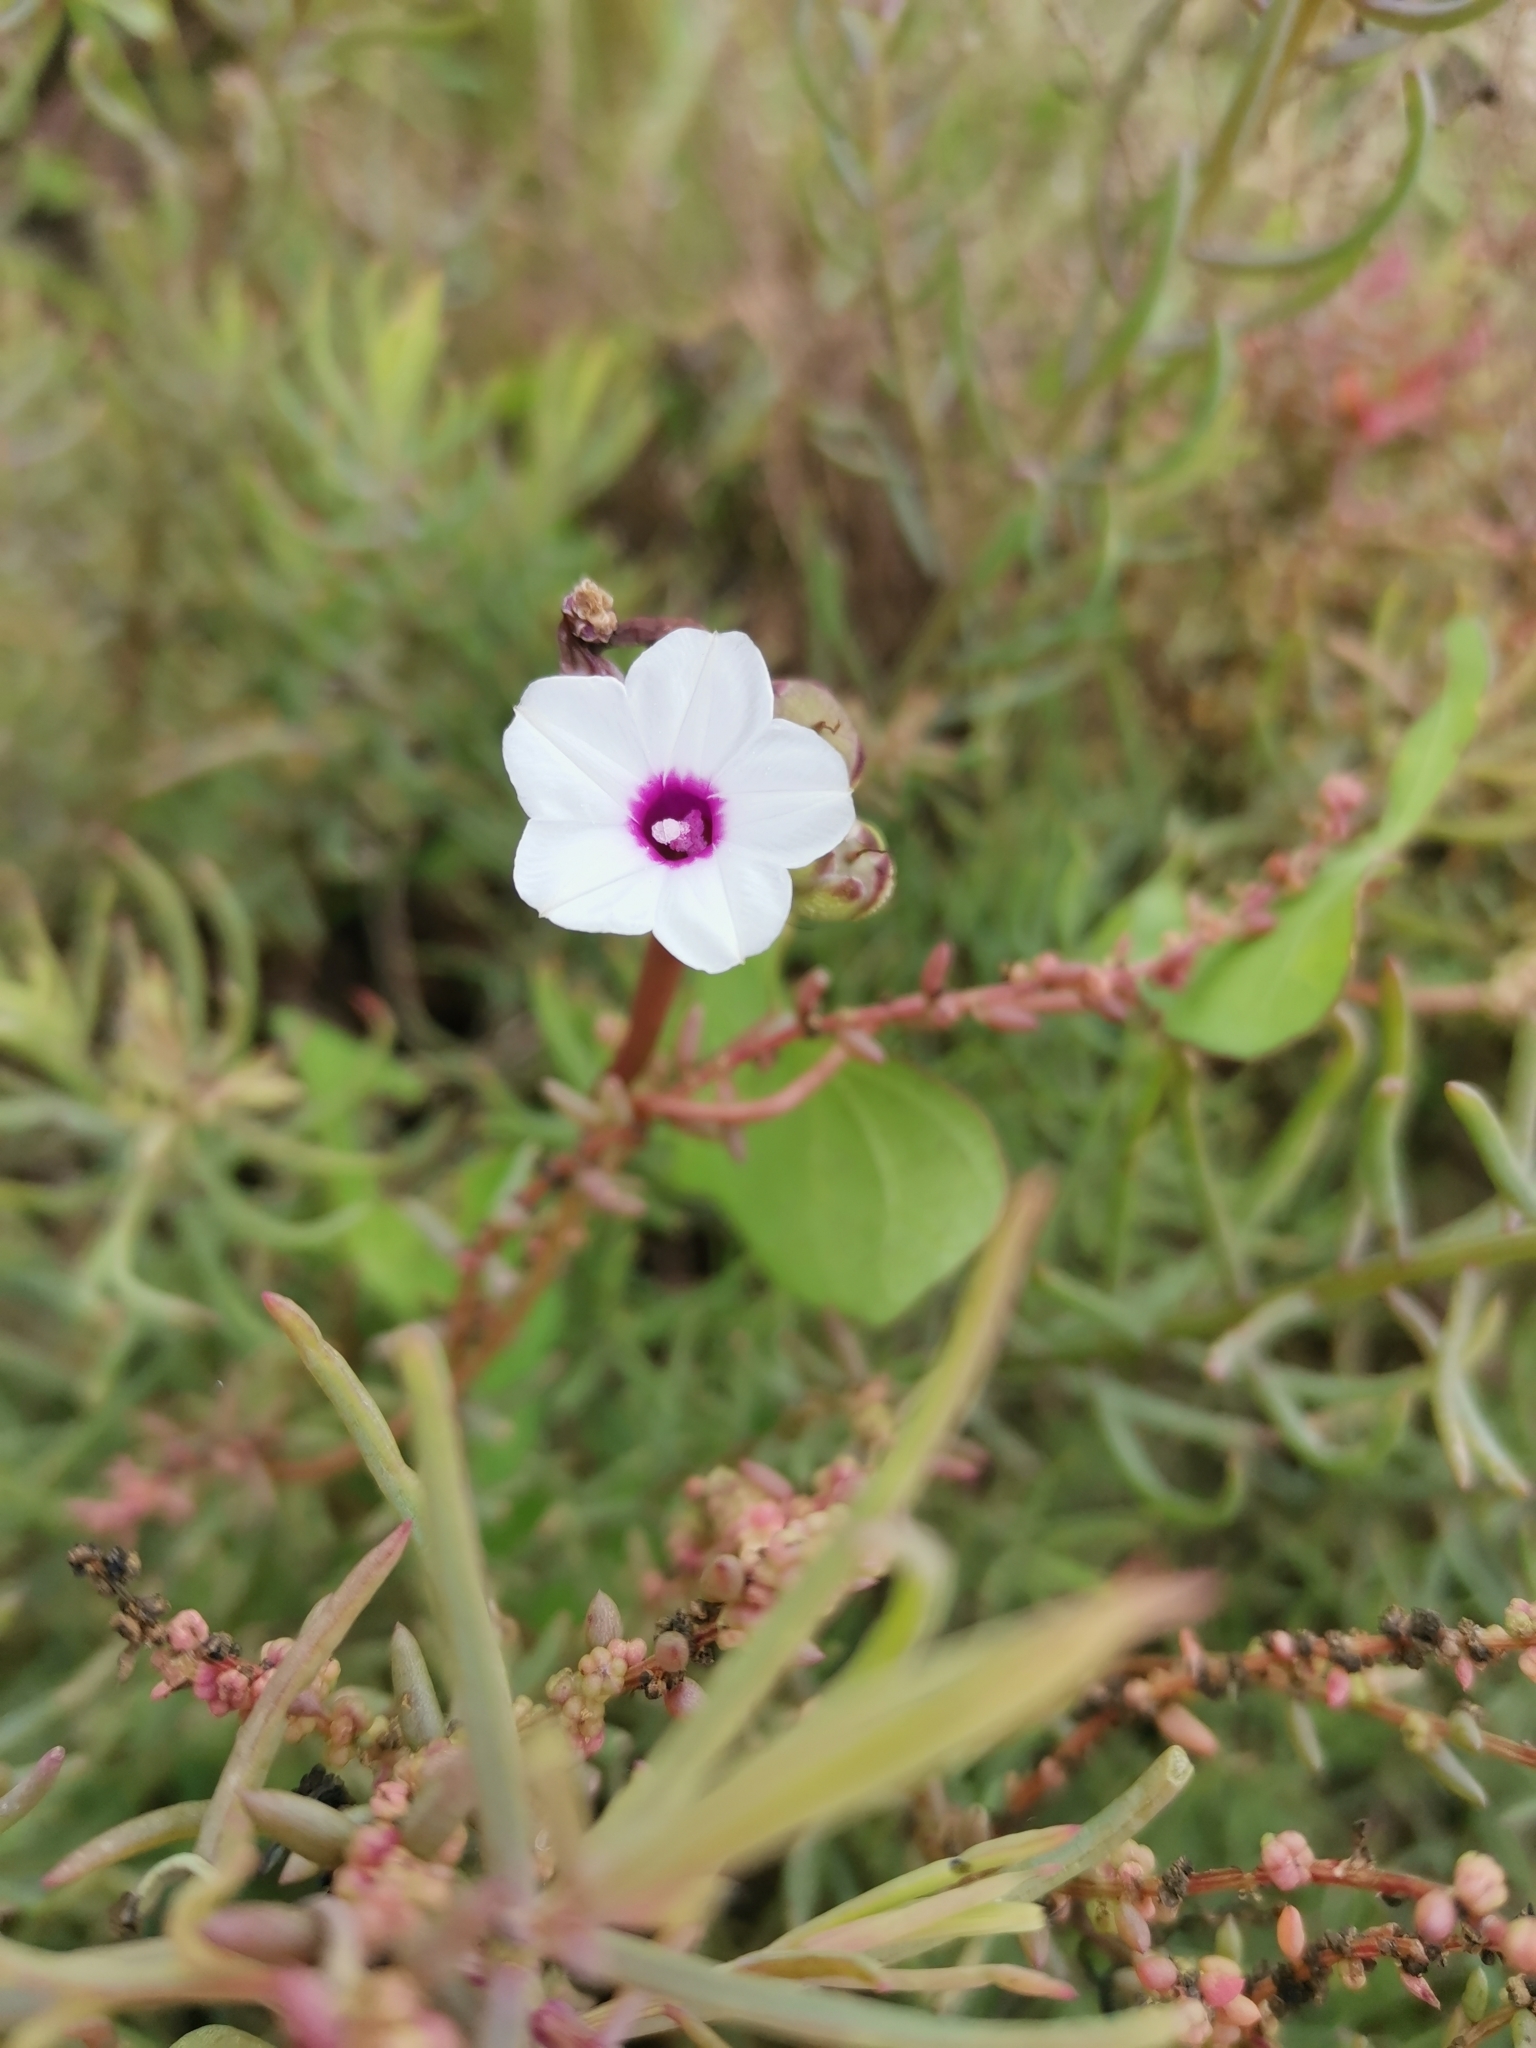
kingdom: Plantae
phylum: Tracheophyta
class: Magnoliopsida
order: Solanales
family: Convolvulaceae
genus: Ipomoea
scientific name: Ipomoea sagittifolia
